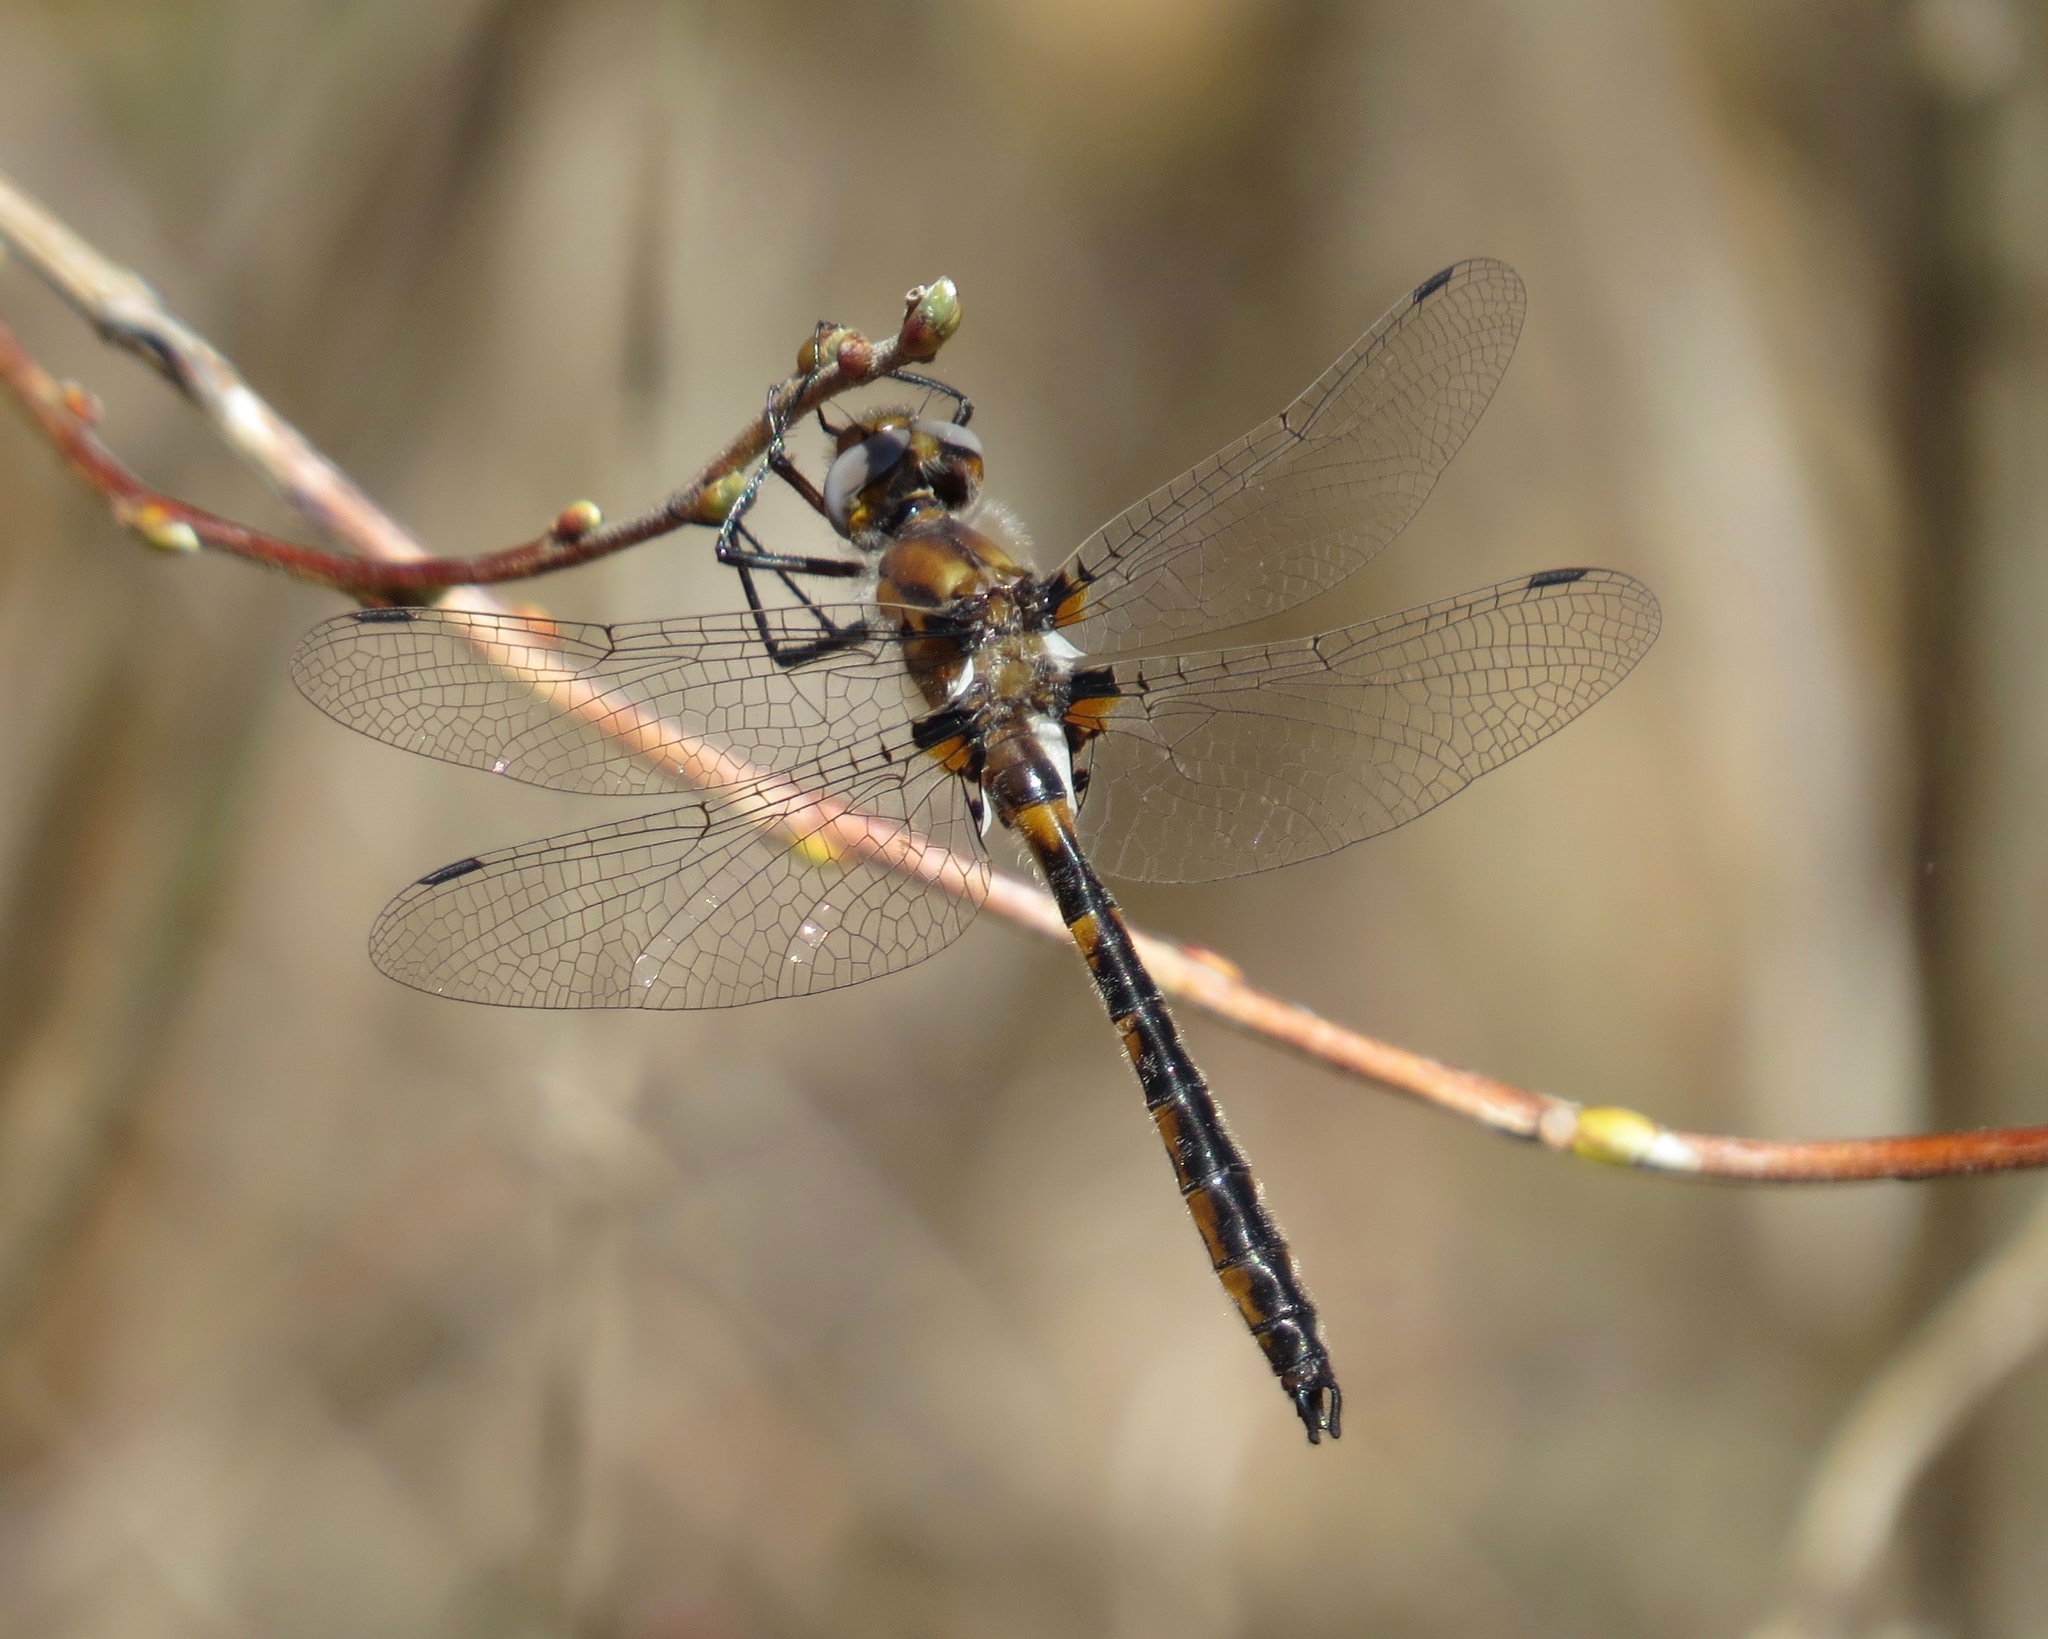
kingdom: Animalia
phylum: Arthropoda
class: Insecta
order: Odonata
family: Corduliidae
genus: Helocordulia
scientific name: Helocordulia uhleri
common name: Uhler's sundragon
